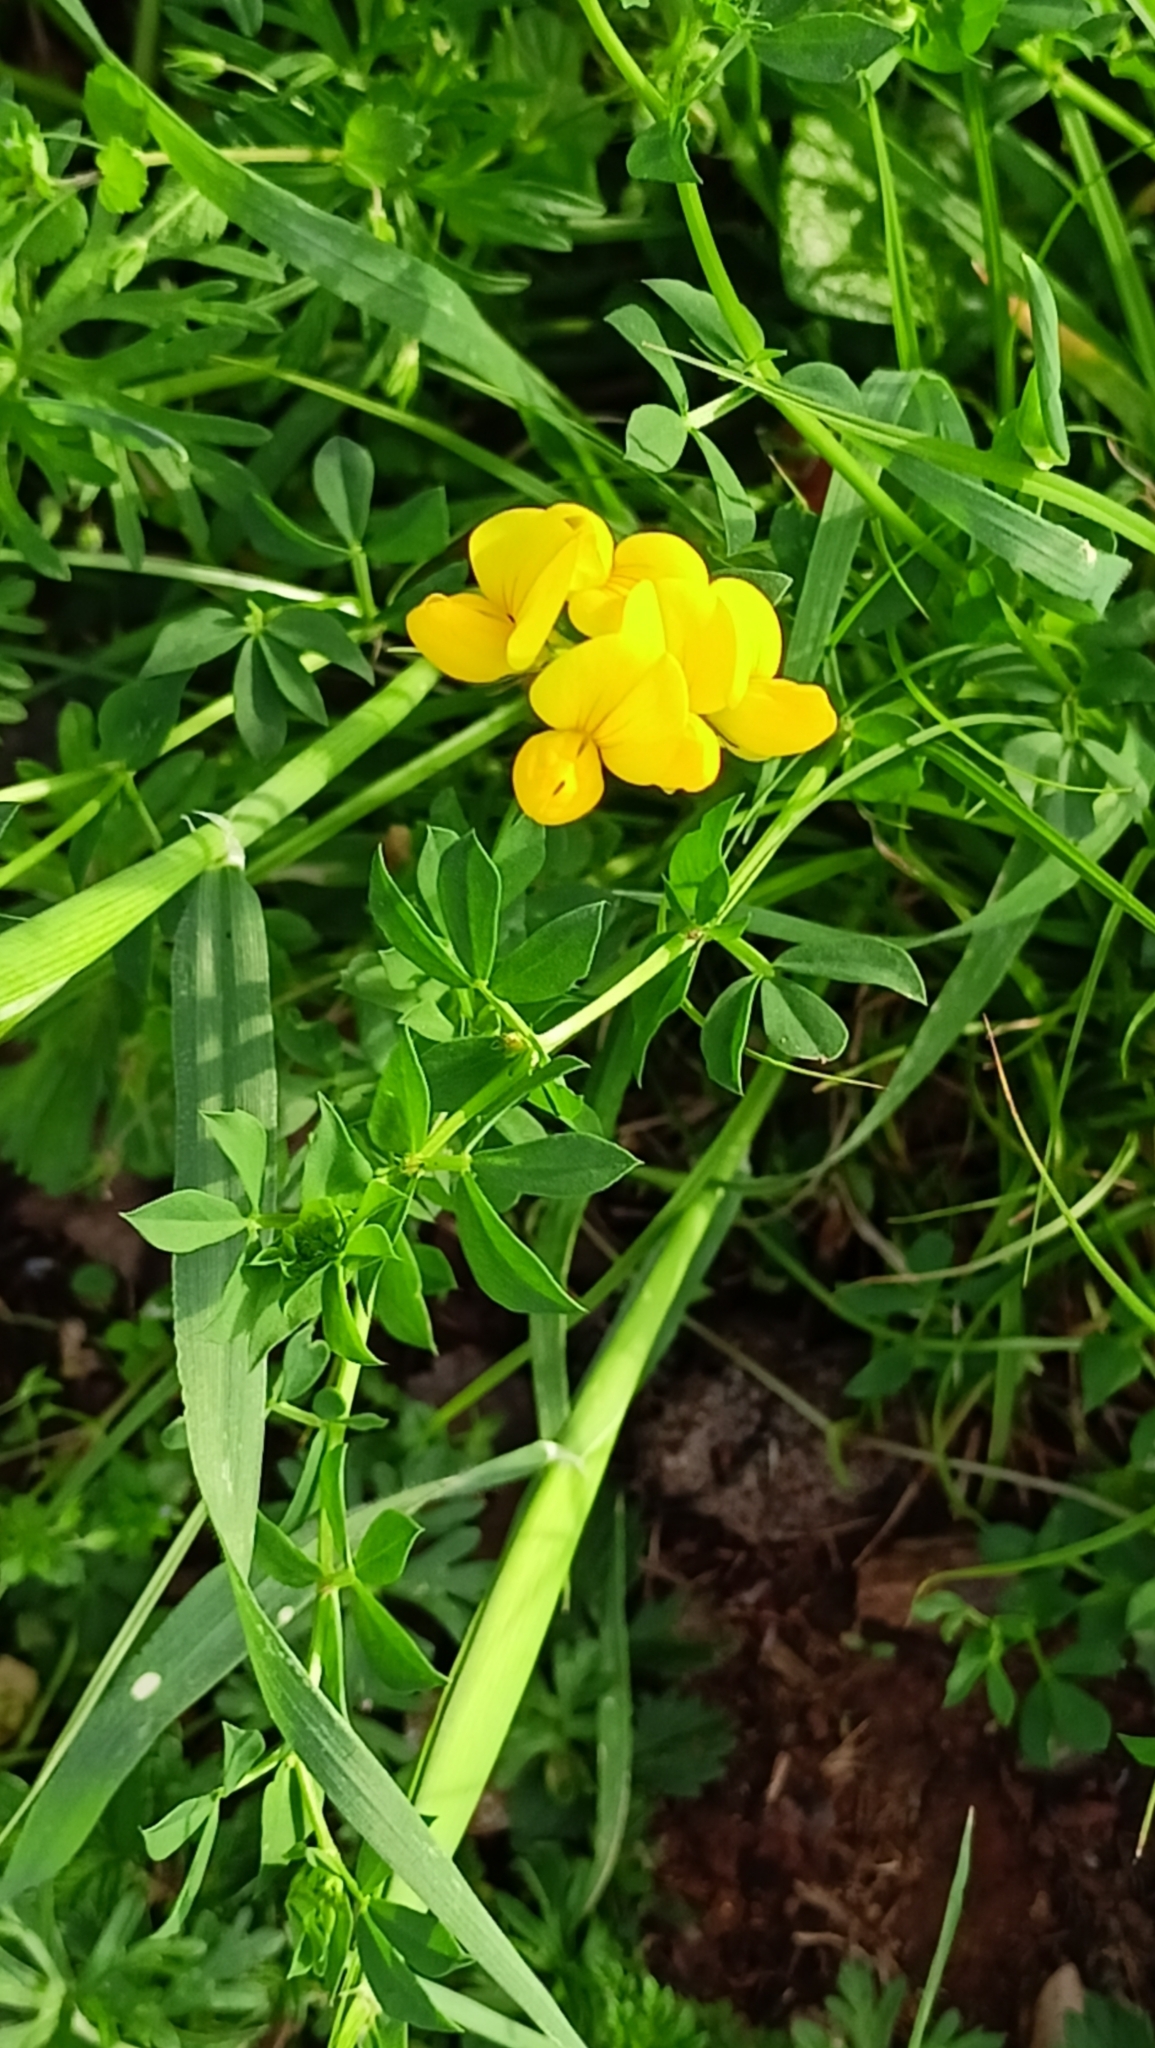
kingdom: Plantae
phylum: Tracheophyta
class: Magnoliopsida
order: Fabales
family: Fabaceae
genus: Lotus
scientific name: Lotus corniculatus
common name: Common bird's-foot-trefoil
